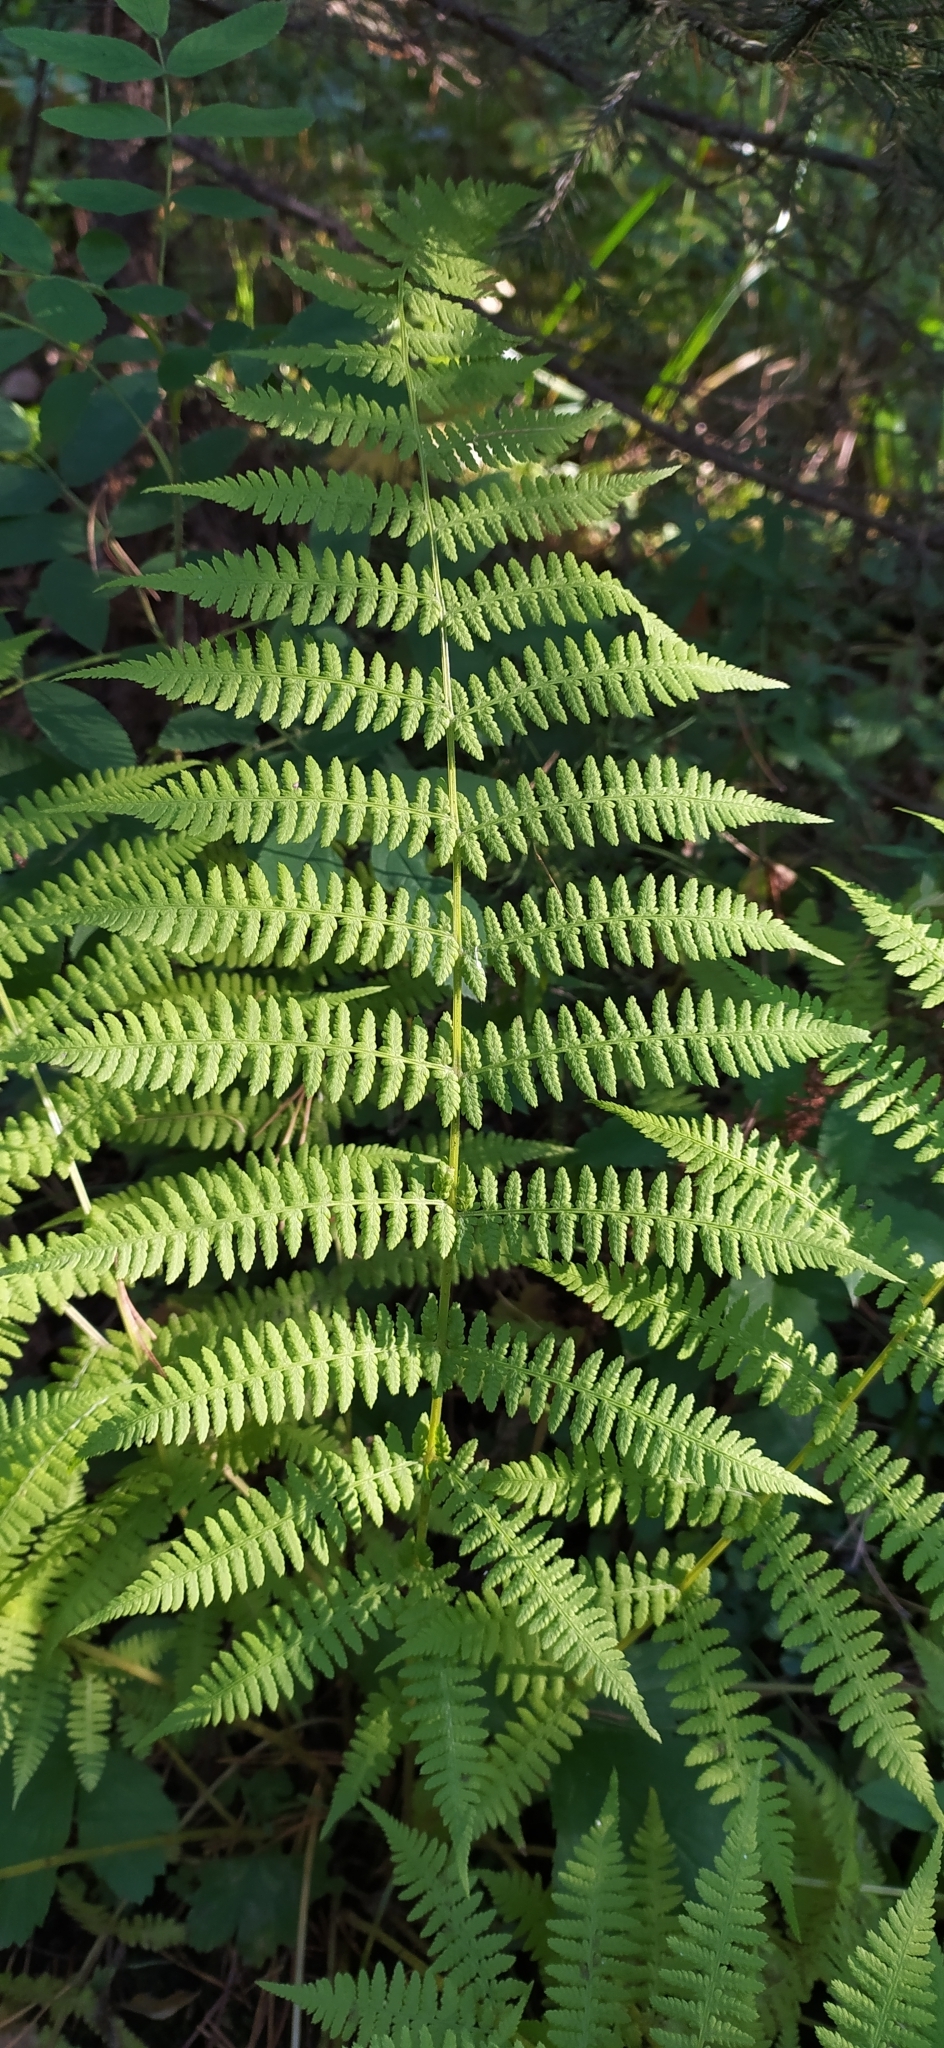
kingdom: Plantae
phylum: Tracheophyta
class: Polypodiopsida
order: Polypodiales
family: Athyriaceae
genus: Athyrium
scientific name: Athyrium filix-femina
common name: Lady fern
